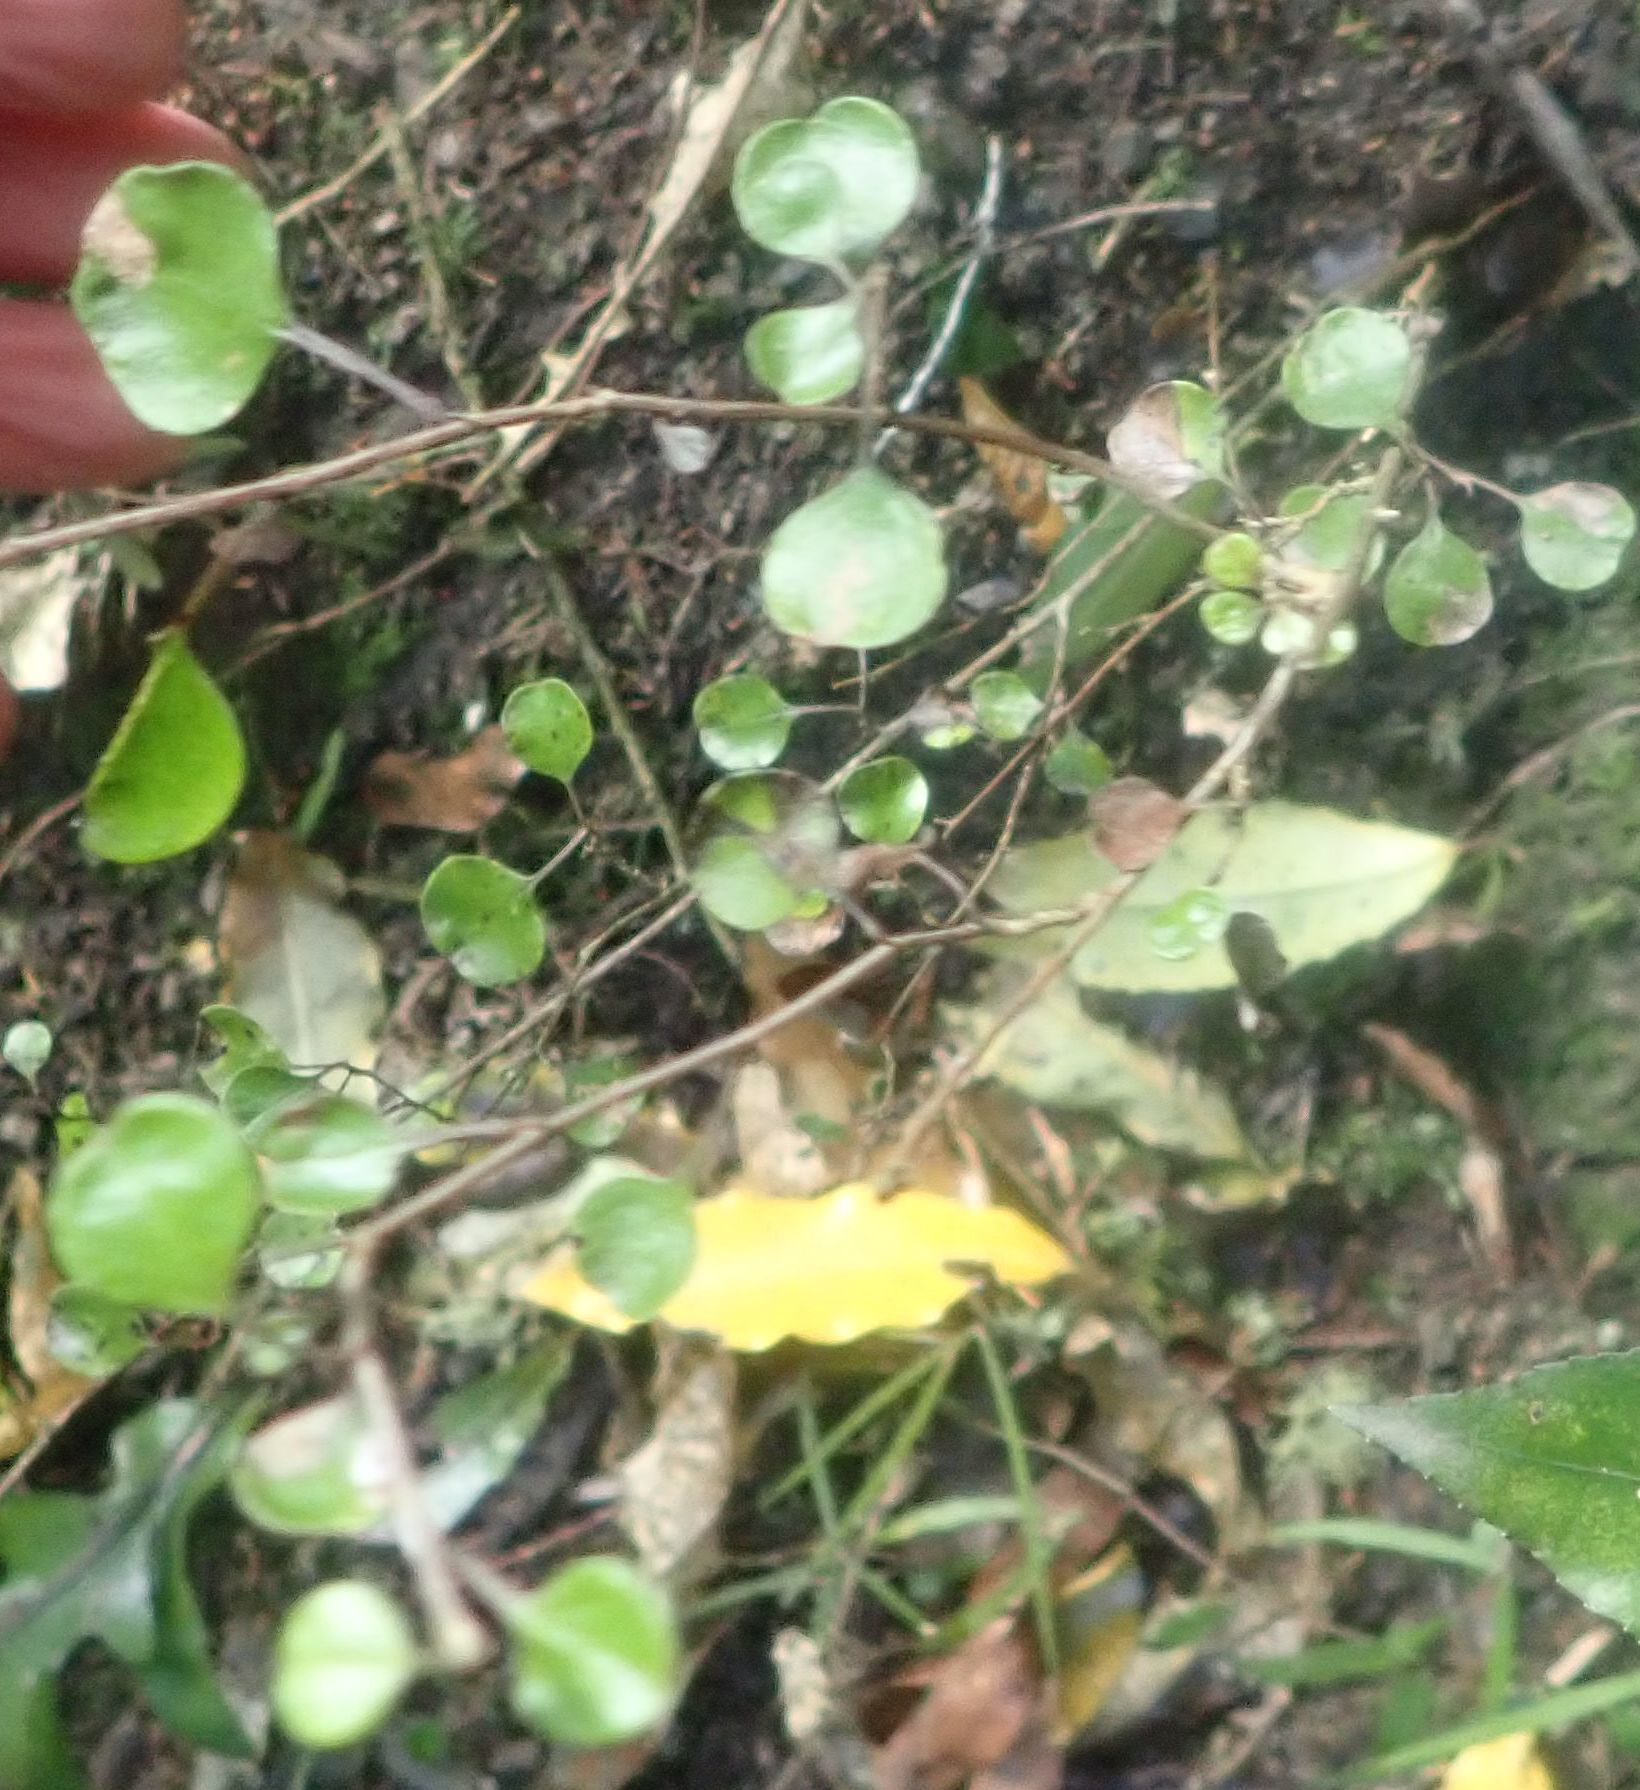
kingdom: Plantae
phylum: Tracheophyta
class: Magnoliopsida
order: Asterales
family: Asteraceae
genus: Ozothamnus
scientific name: Ozothamnus glomeratus
